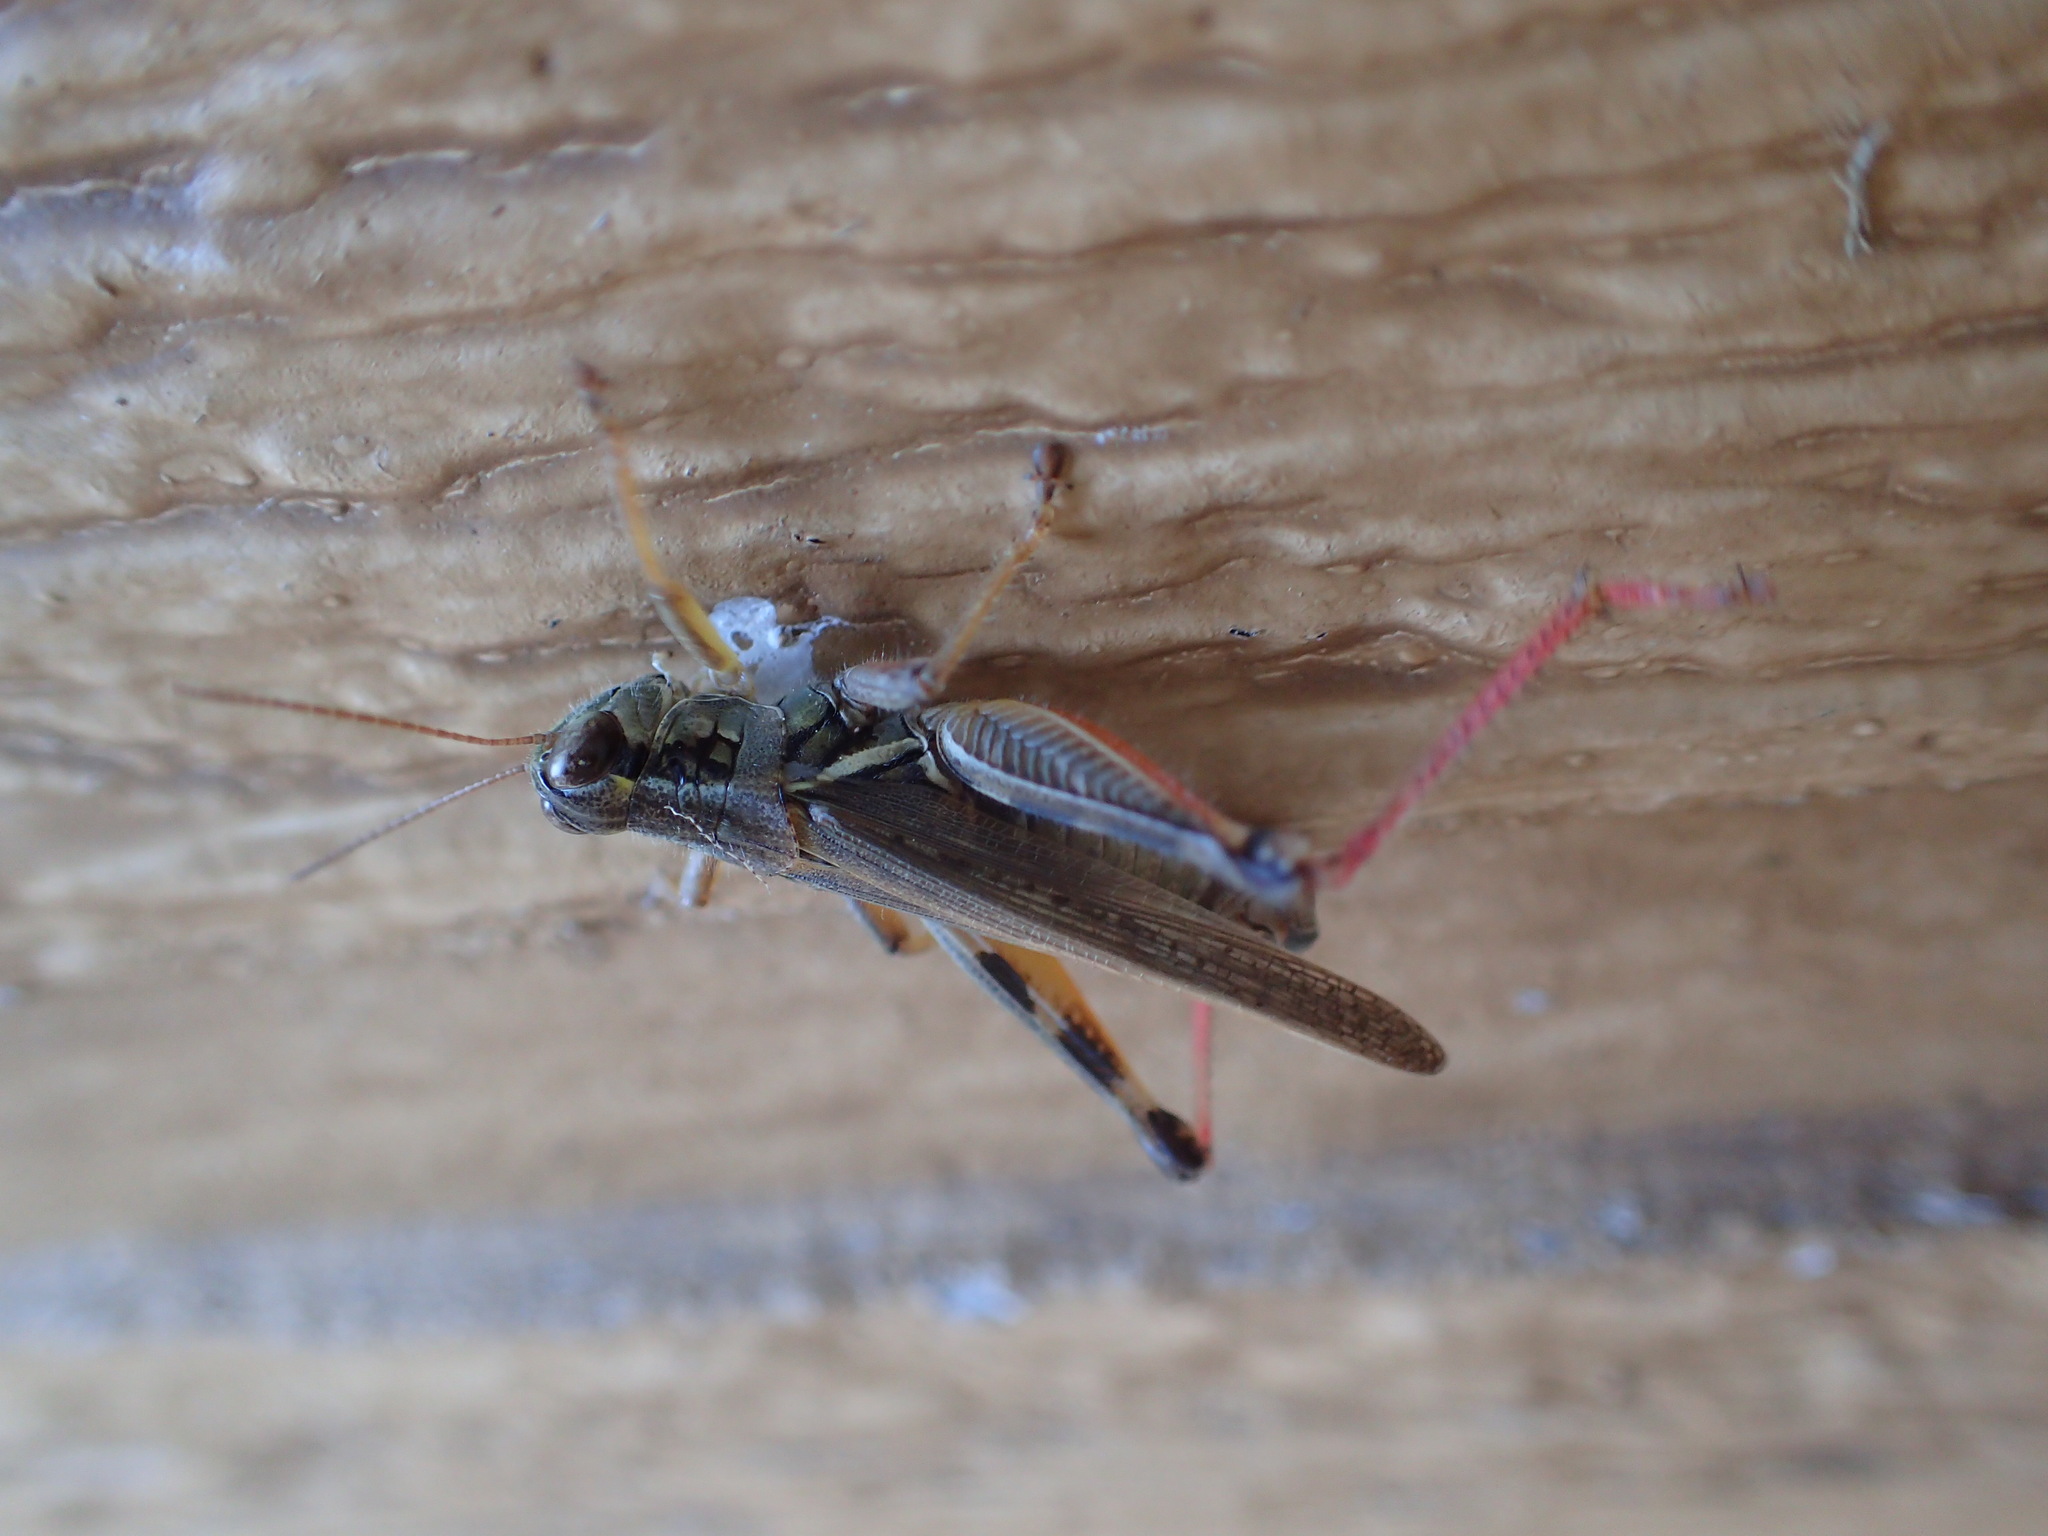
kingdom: Animalia
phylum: Arthropoda
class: Insecta
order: Orthoptera
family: Acrididae
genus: Melanoplus
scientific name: Melanoplus femurrubrum
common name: Red-legged grasshopper
